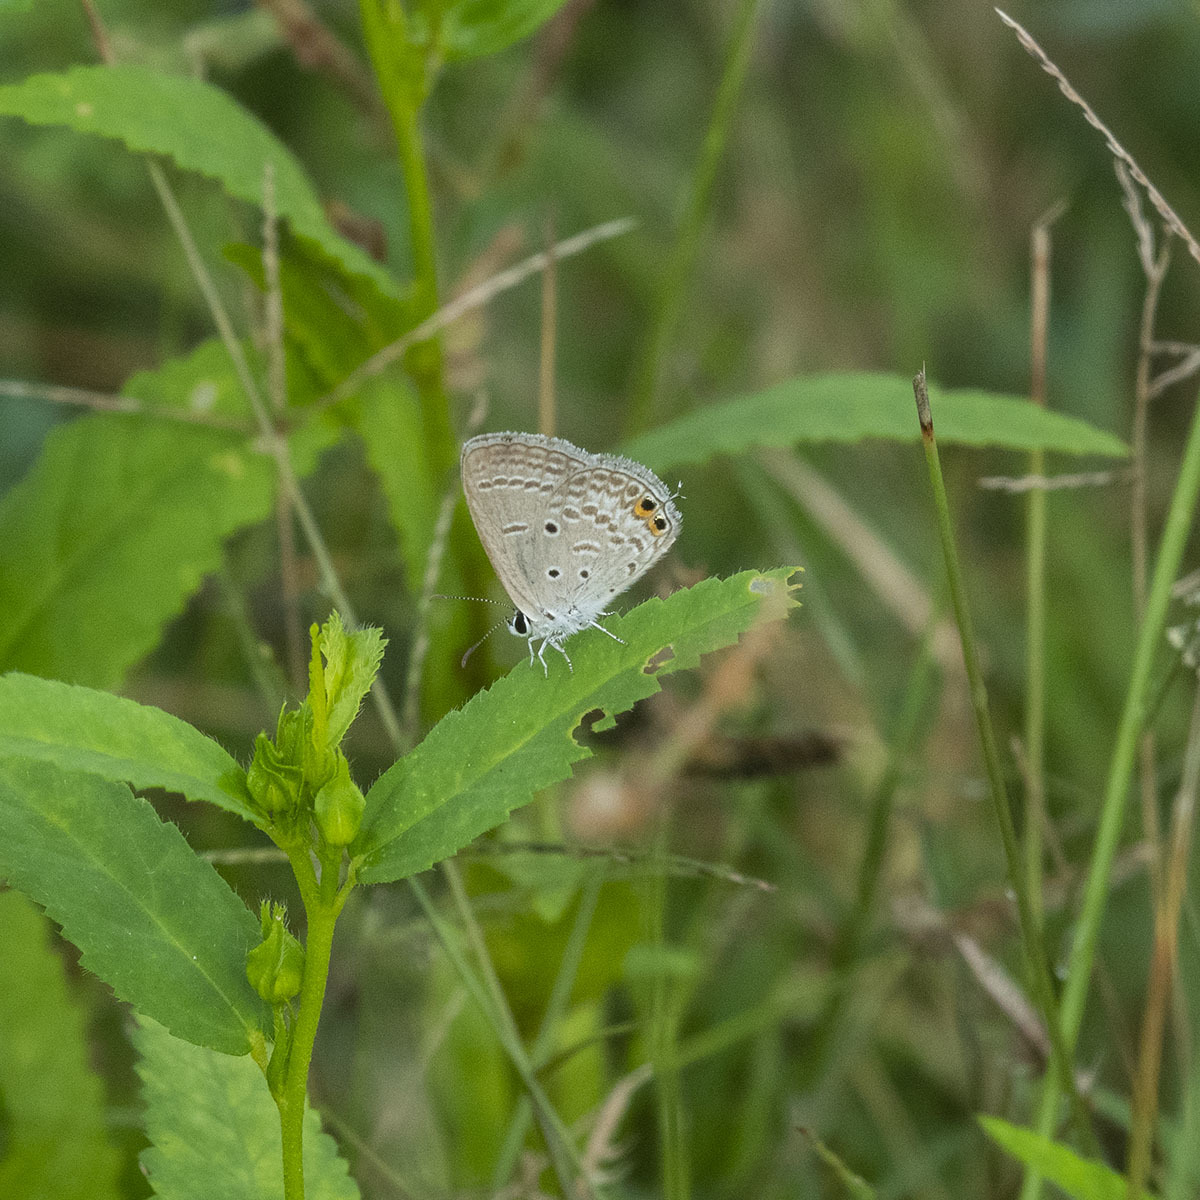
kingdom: Animalia
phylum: Arthropoda
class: Insecta
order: Lepidoptera
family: Lycaenidae
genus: Euchrysops
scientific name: Euchrysops cnejus
